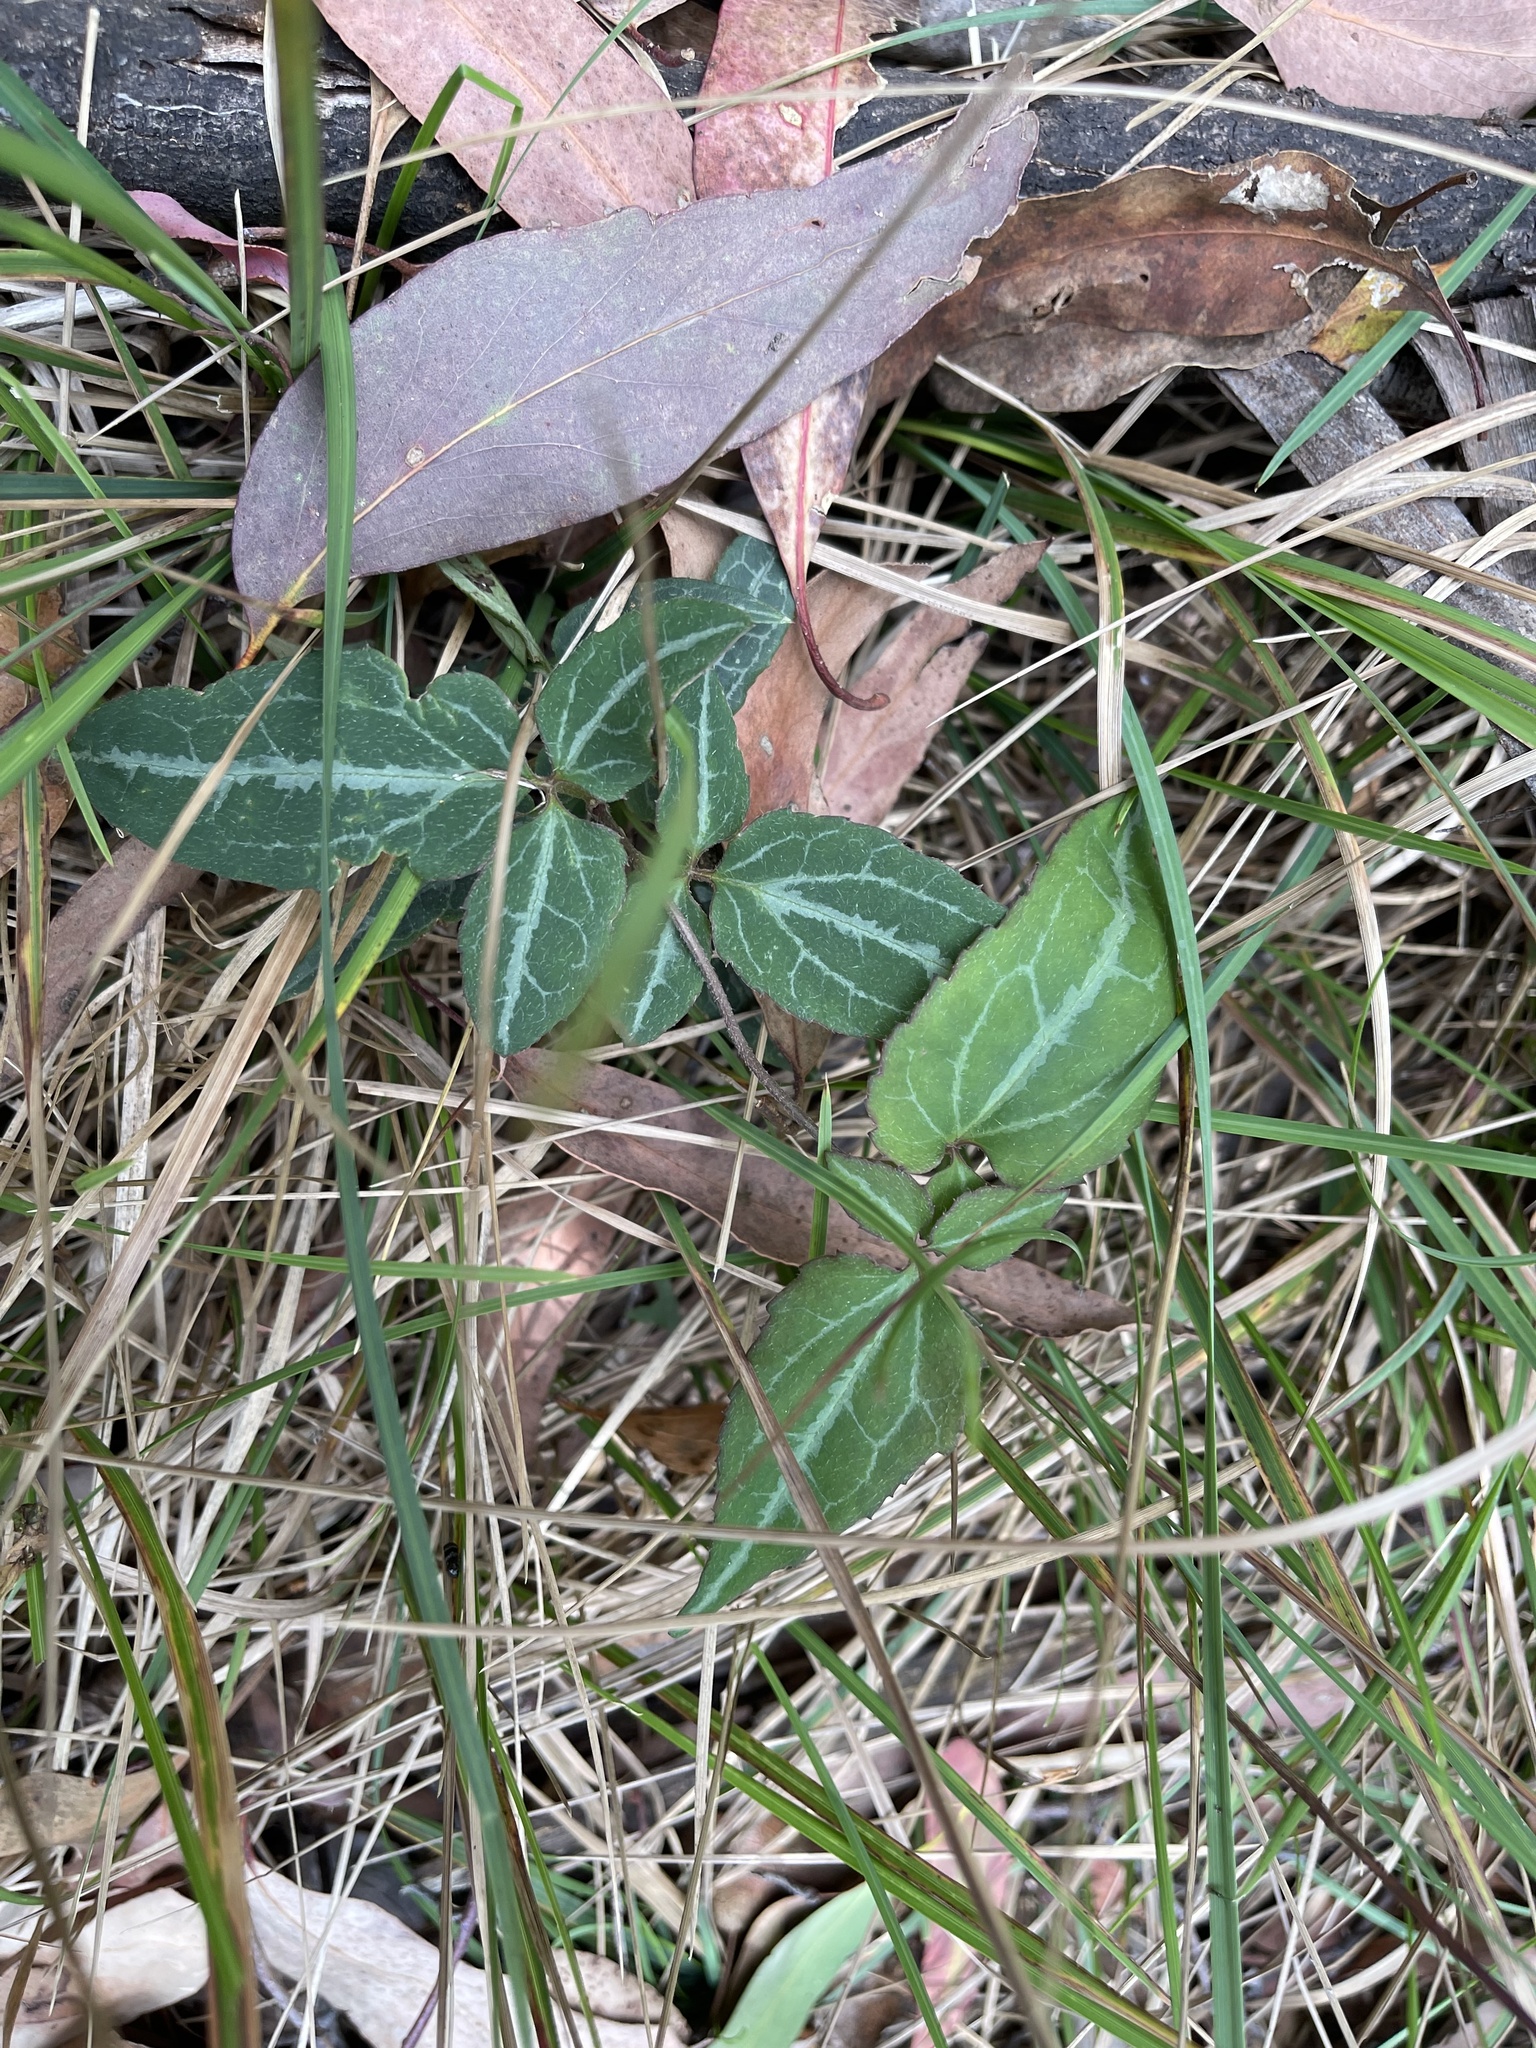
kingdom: Plantae
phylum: Tracheophyta
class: Magnoliopsida
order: Ranunculales
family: Ranunculaceae
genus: Clematis
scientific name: Clematis aristata
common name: Mountain clematis
